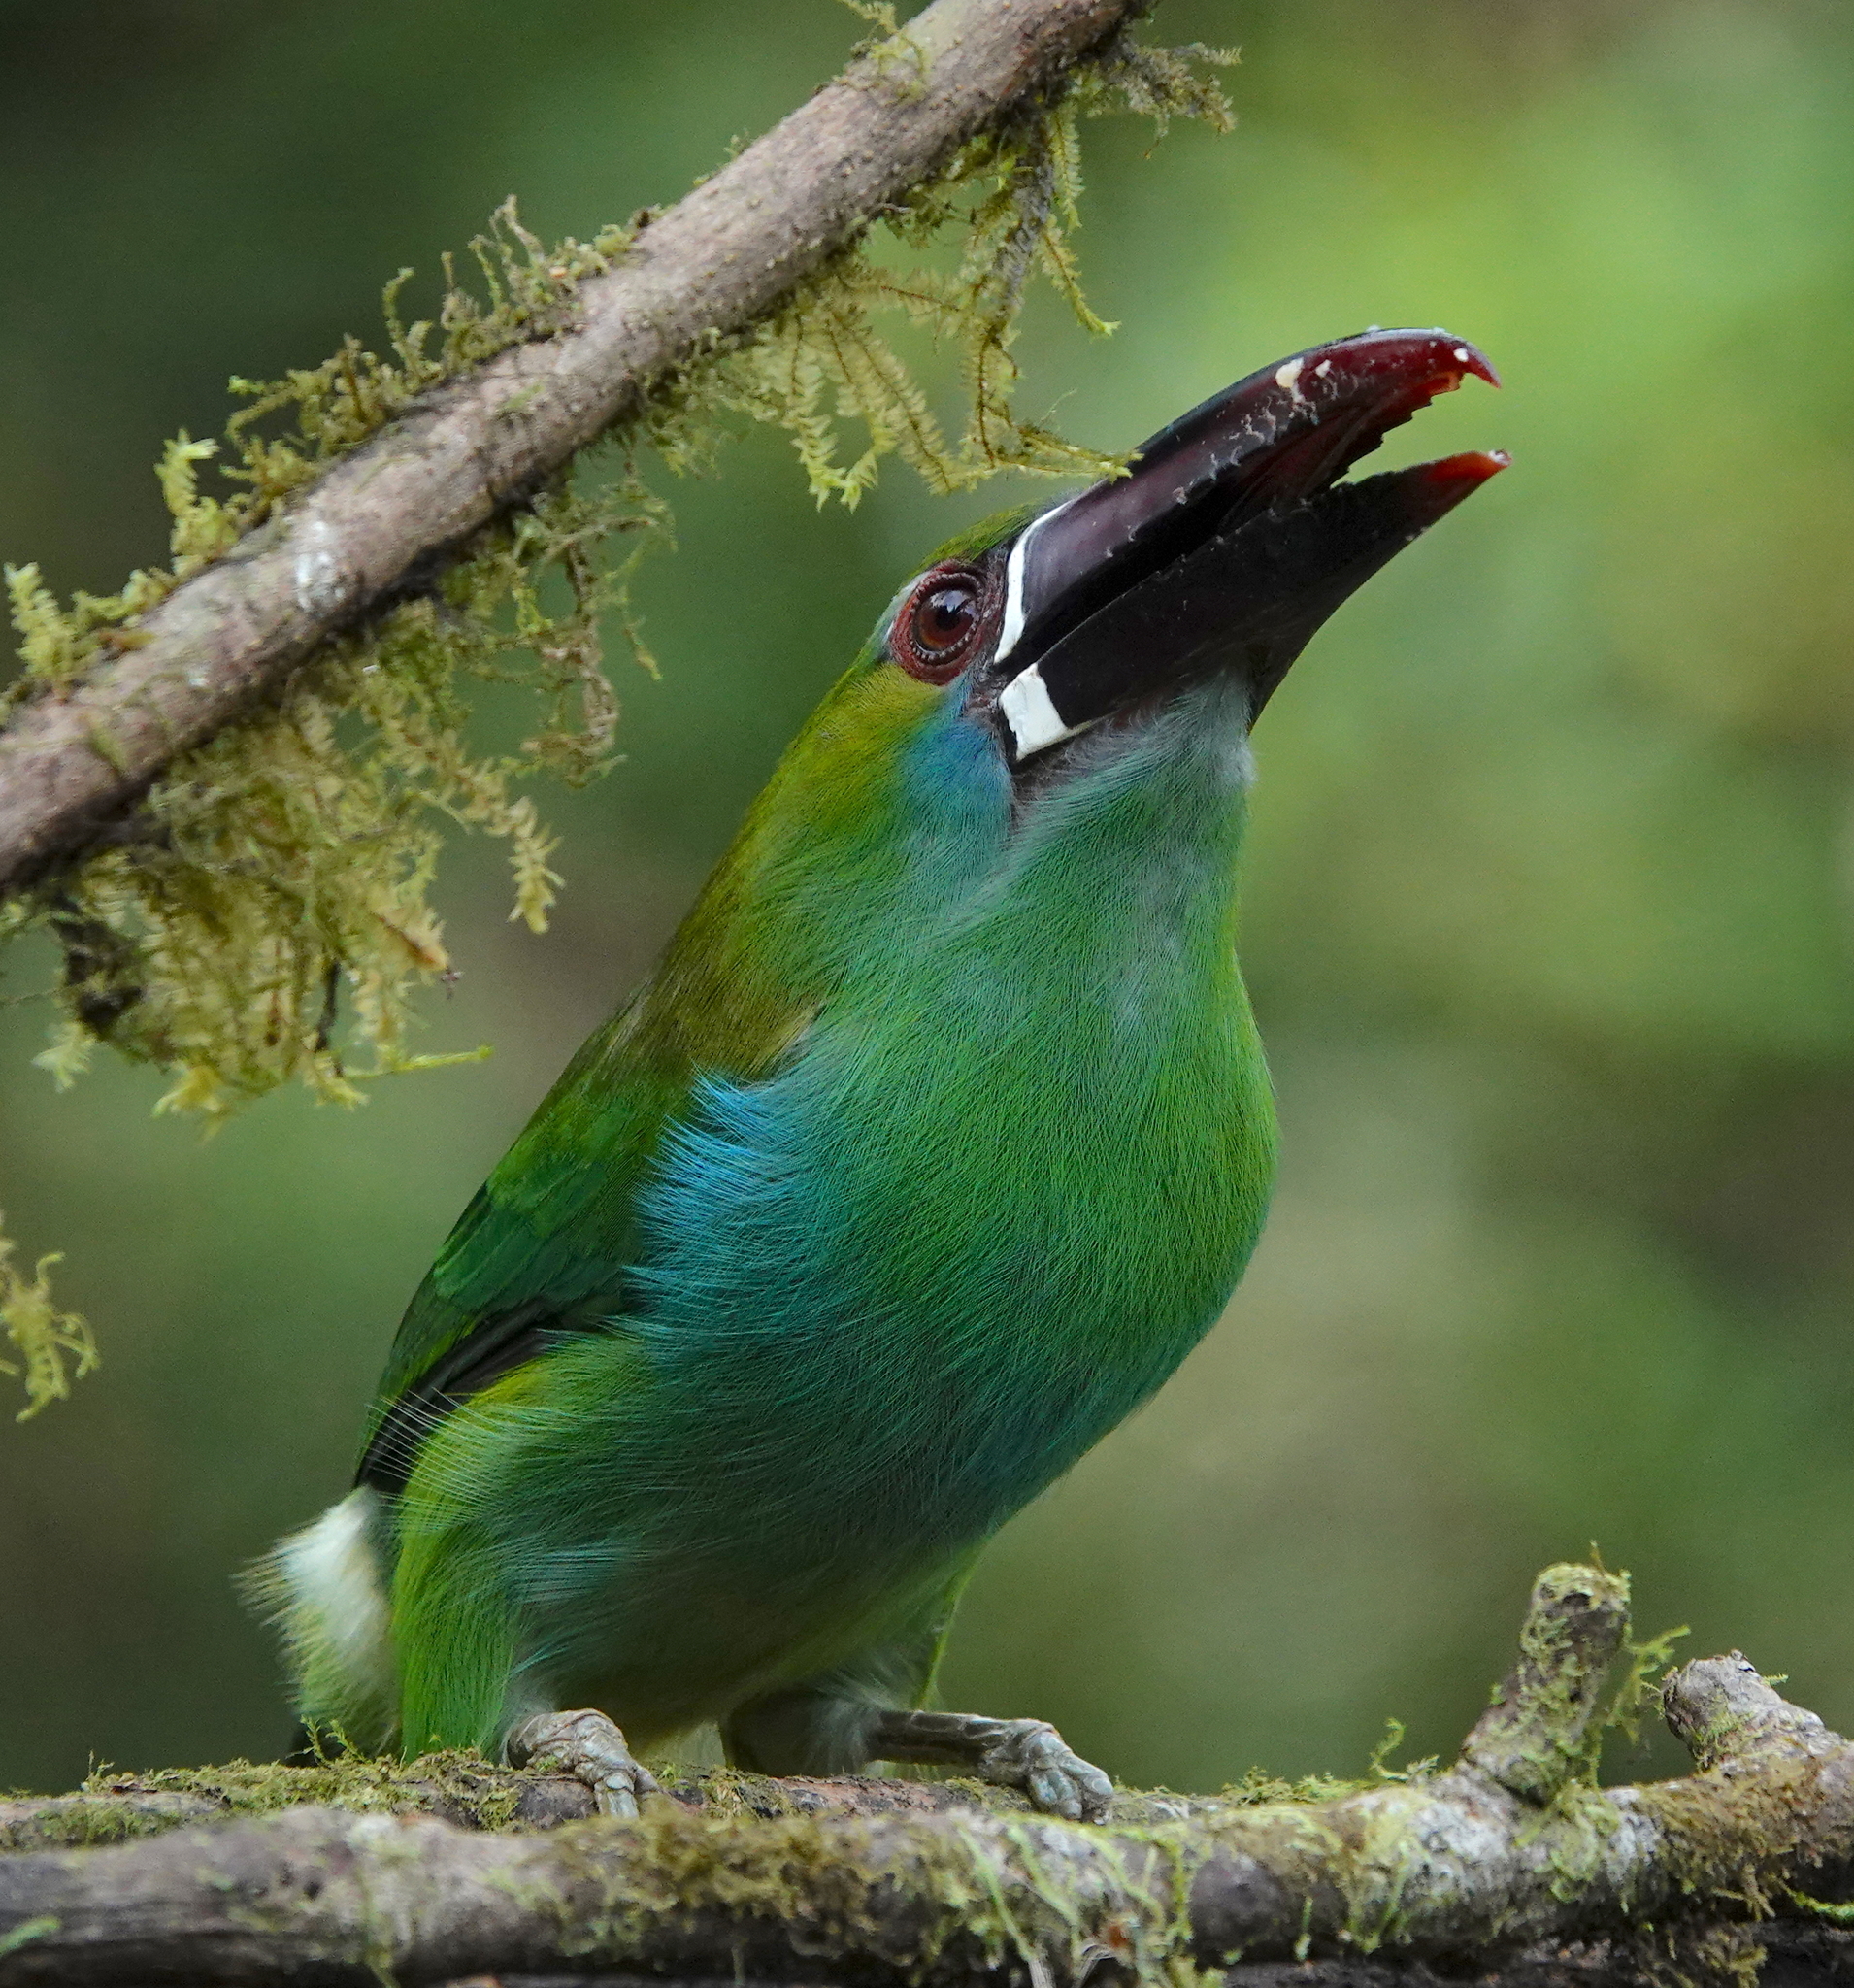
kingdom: Animalia
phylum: Chordata
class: Aves
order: Piciformes
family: Ramphastidae
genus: Aulacorhynchus
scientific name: Aulacorhynchus haematopygus
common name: Crimson-rumped toucanet
